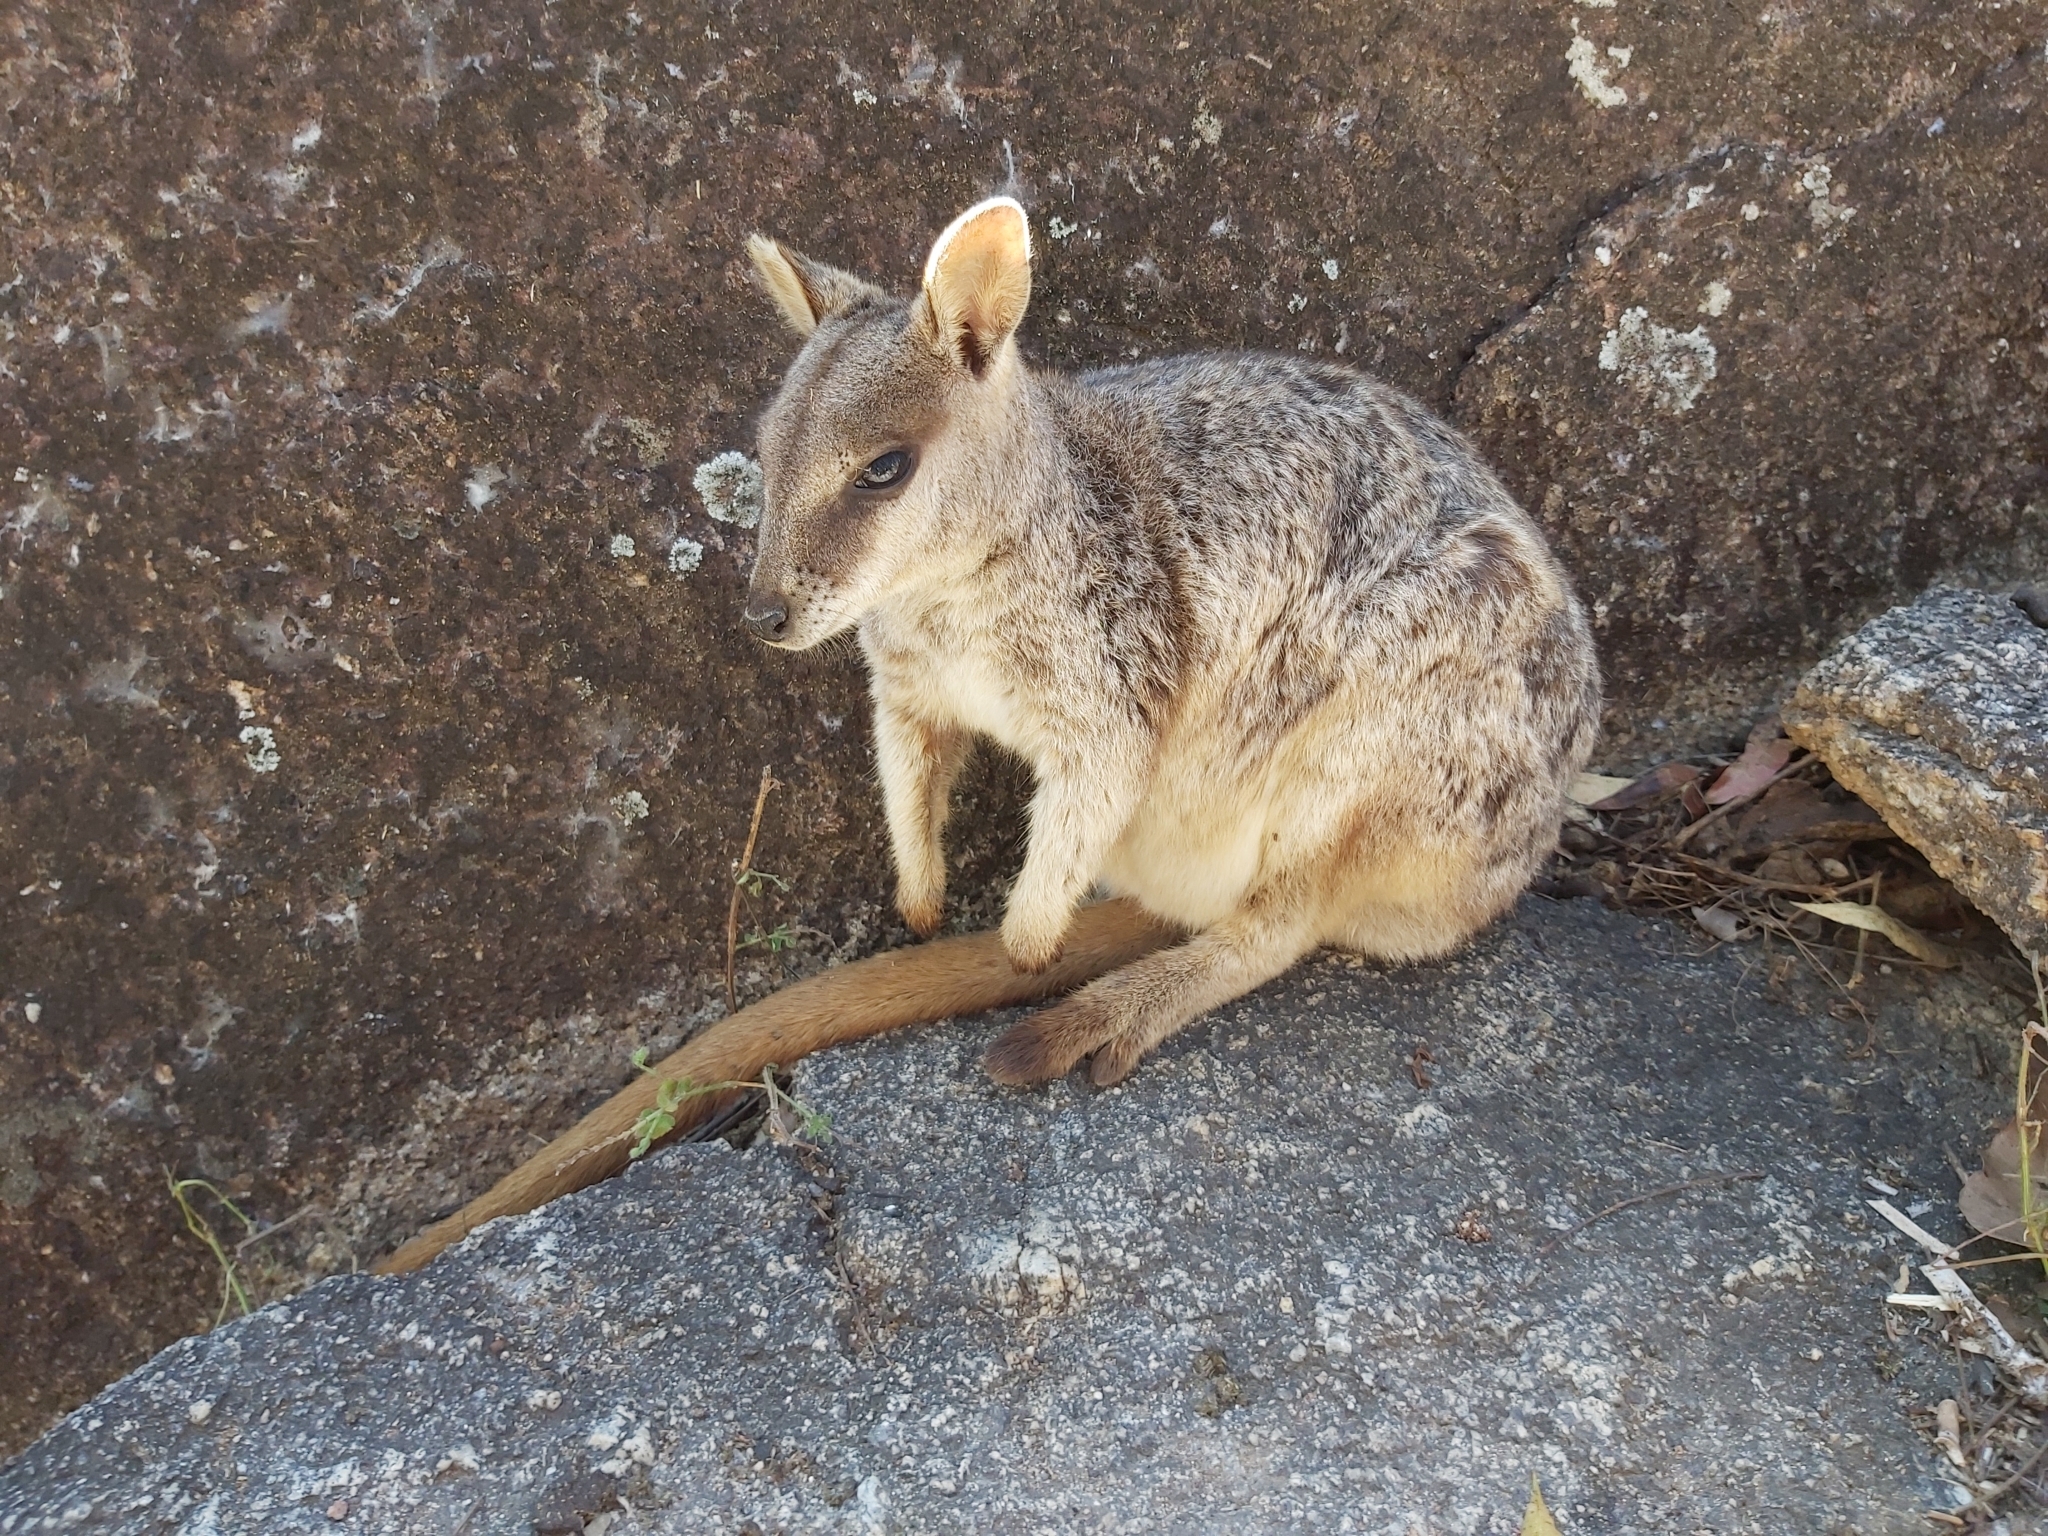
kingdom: Animalia
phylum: Chordata
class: Mammalia
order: Diprotodontia
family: Macropodidae
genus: Petrogale
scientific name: Petrogale mareeba
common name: Mareeba rock-wallaby
